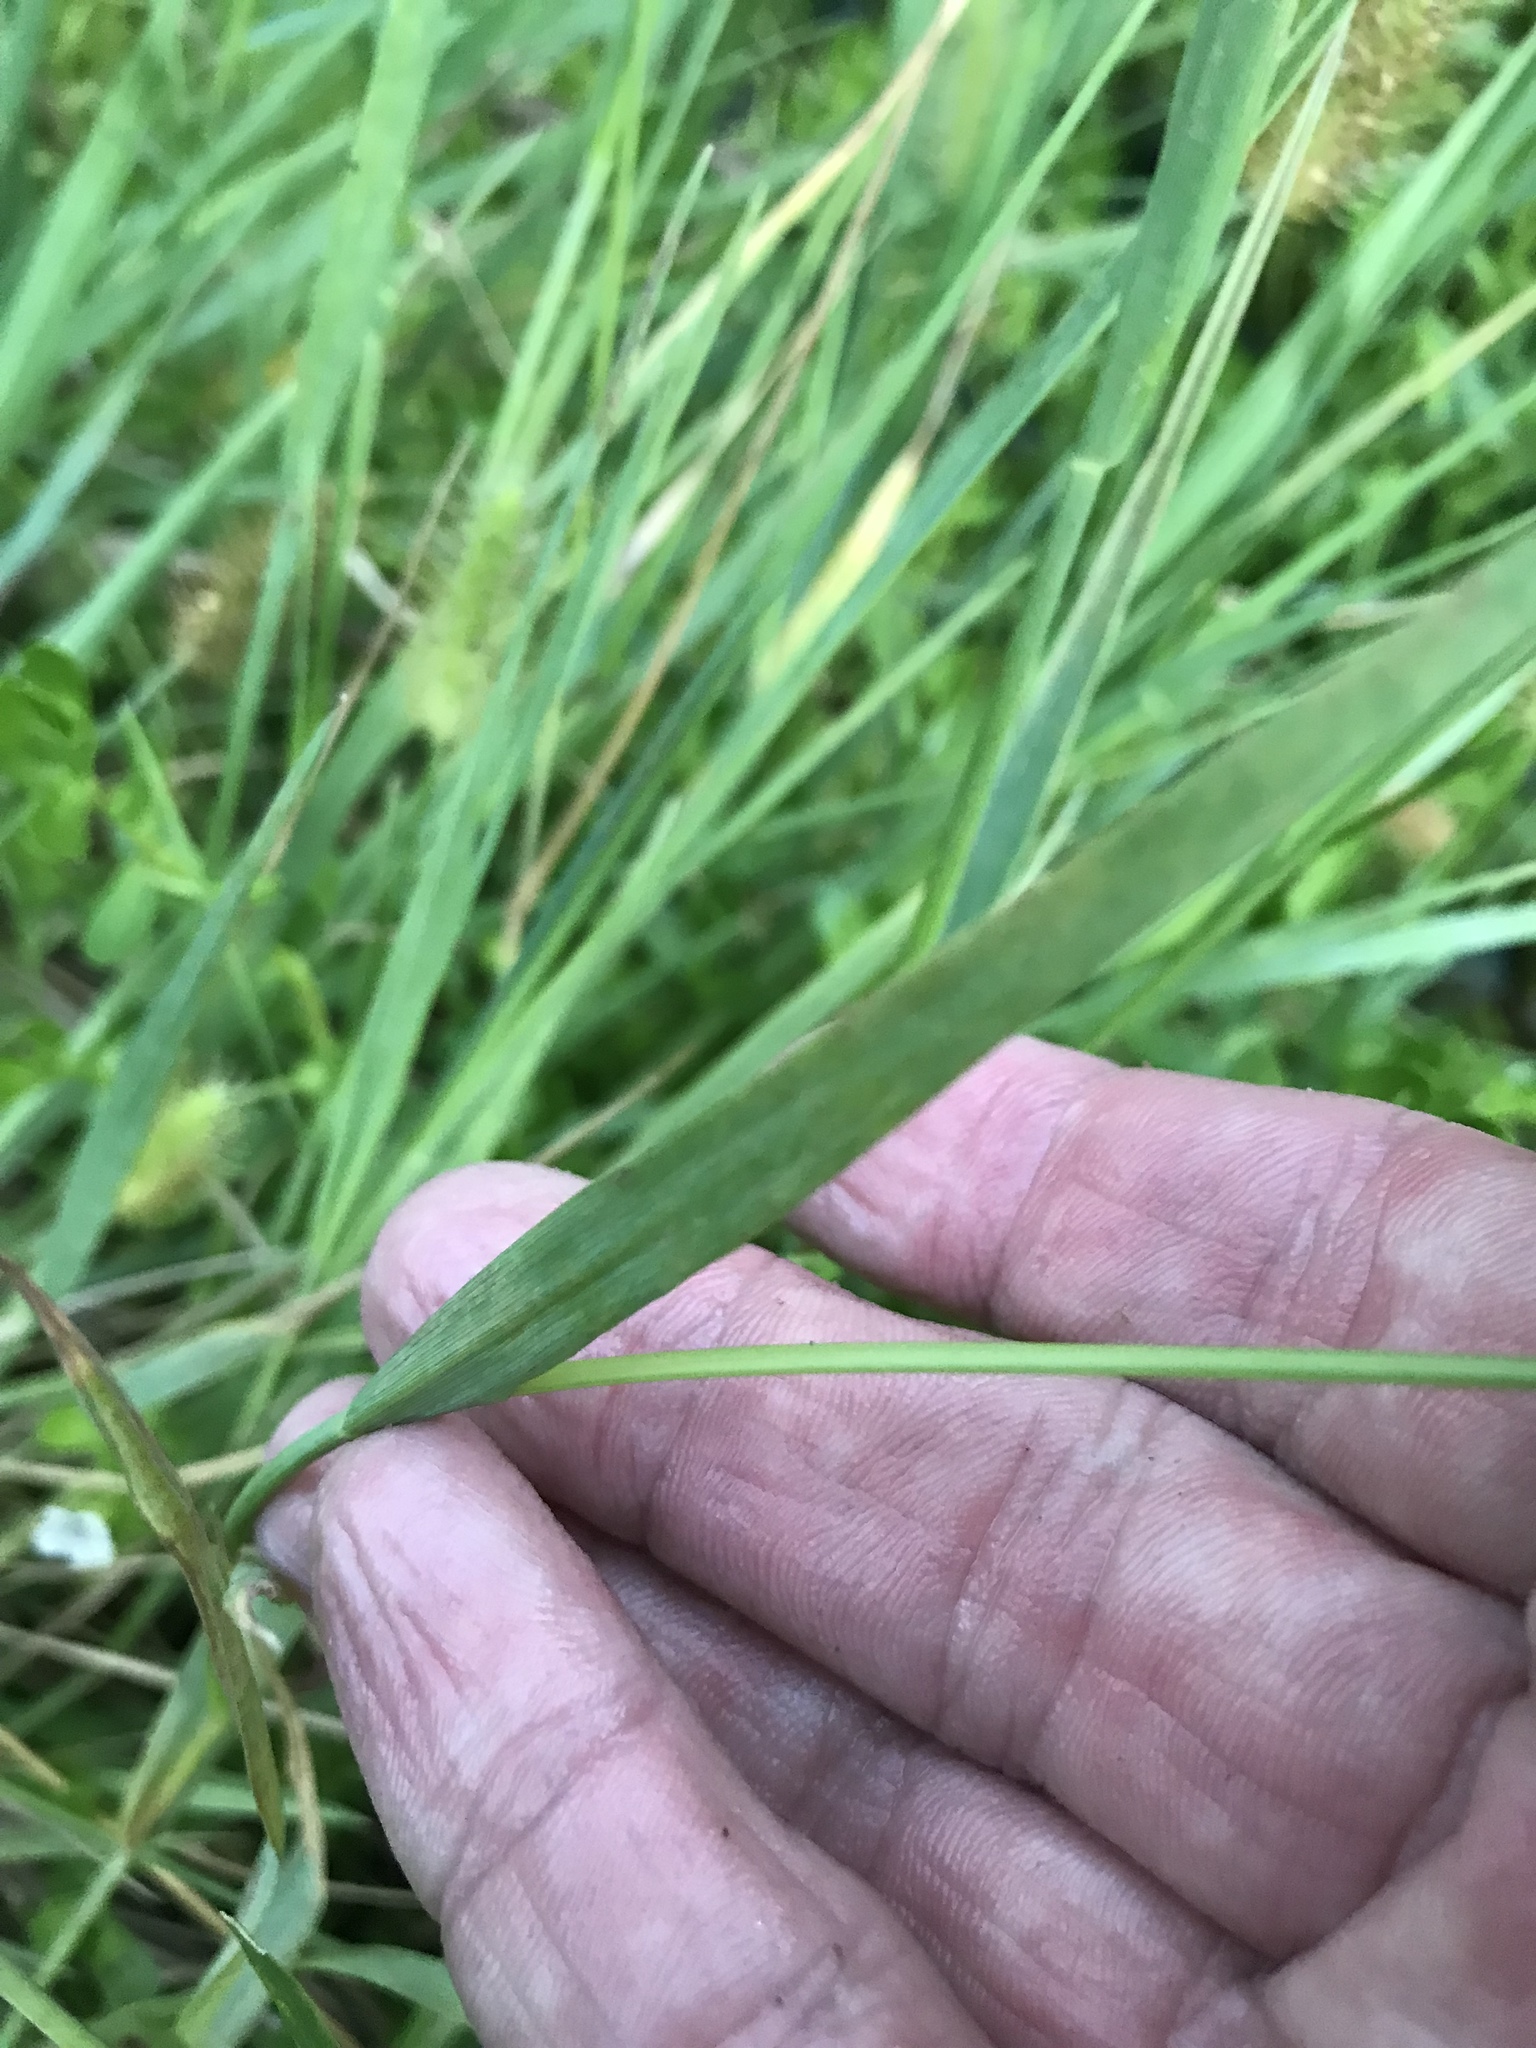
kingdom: Plantae
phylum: Tracheophyta
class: Liliopsida
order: Poales
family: Poaceae
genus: Setaria
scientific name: Setaria parviflora
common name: Knotroot bristle-grass
